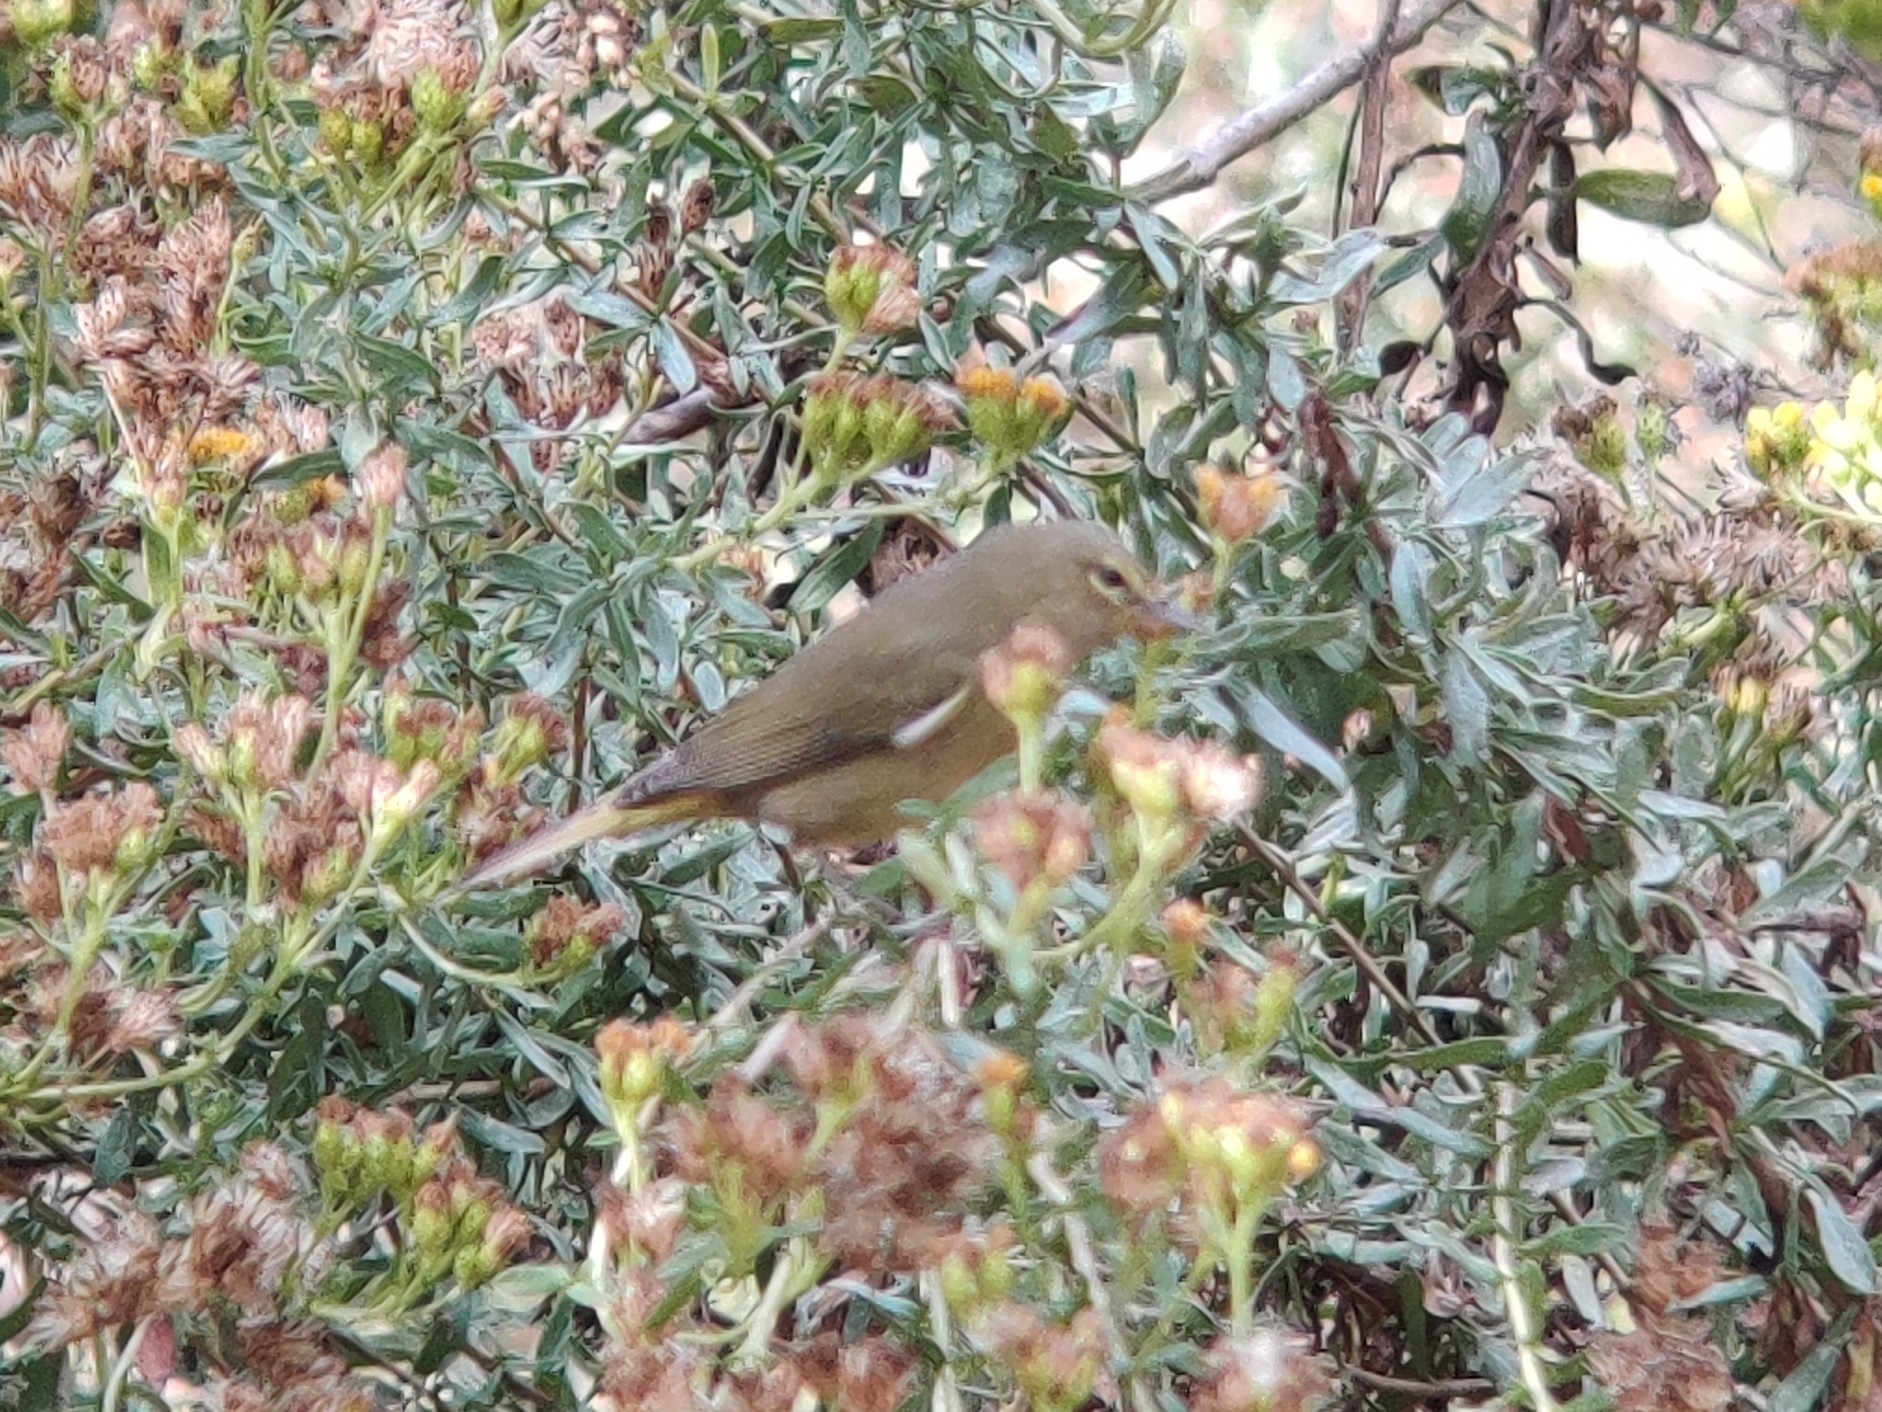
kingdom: Animalia
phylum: Chordata
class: Aves
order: Passeriformes
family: Parulidae
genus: Leiothlypis
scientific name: Leiothlypis celata
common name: Orange-crowned warbler
